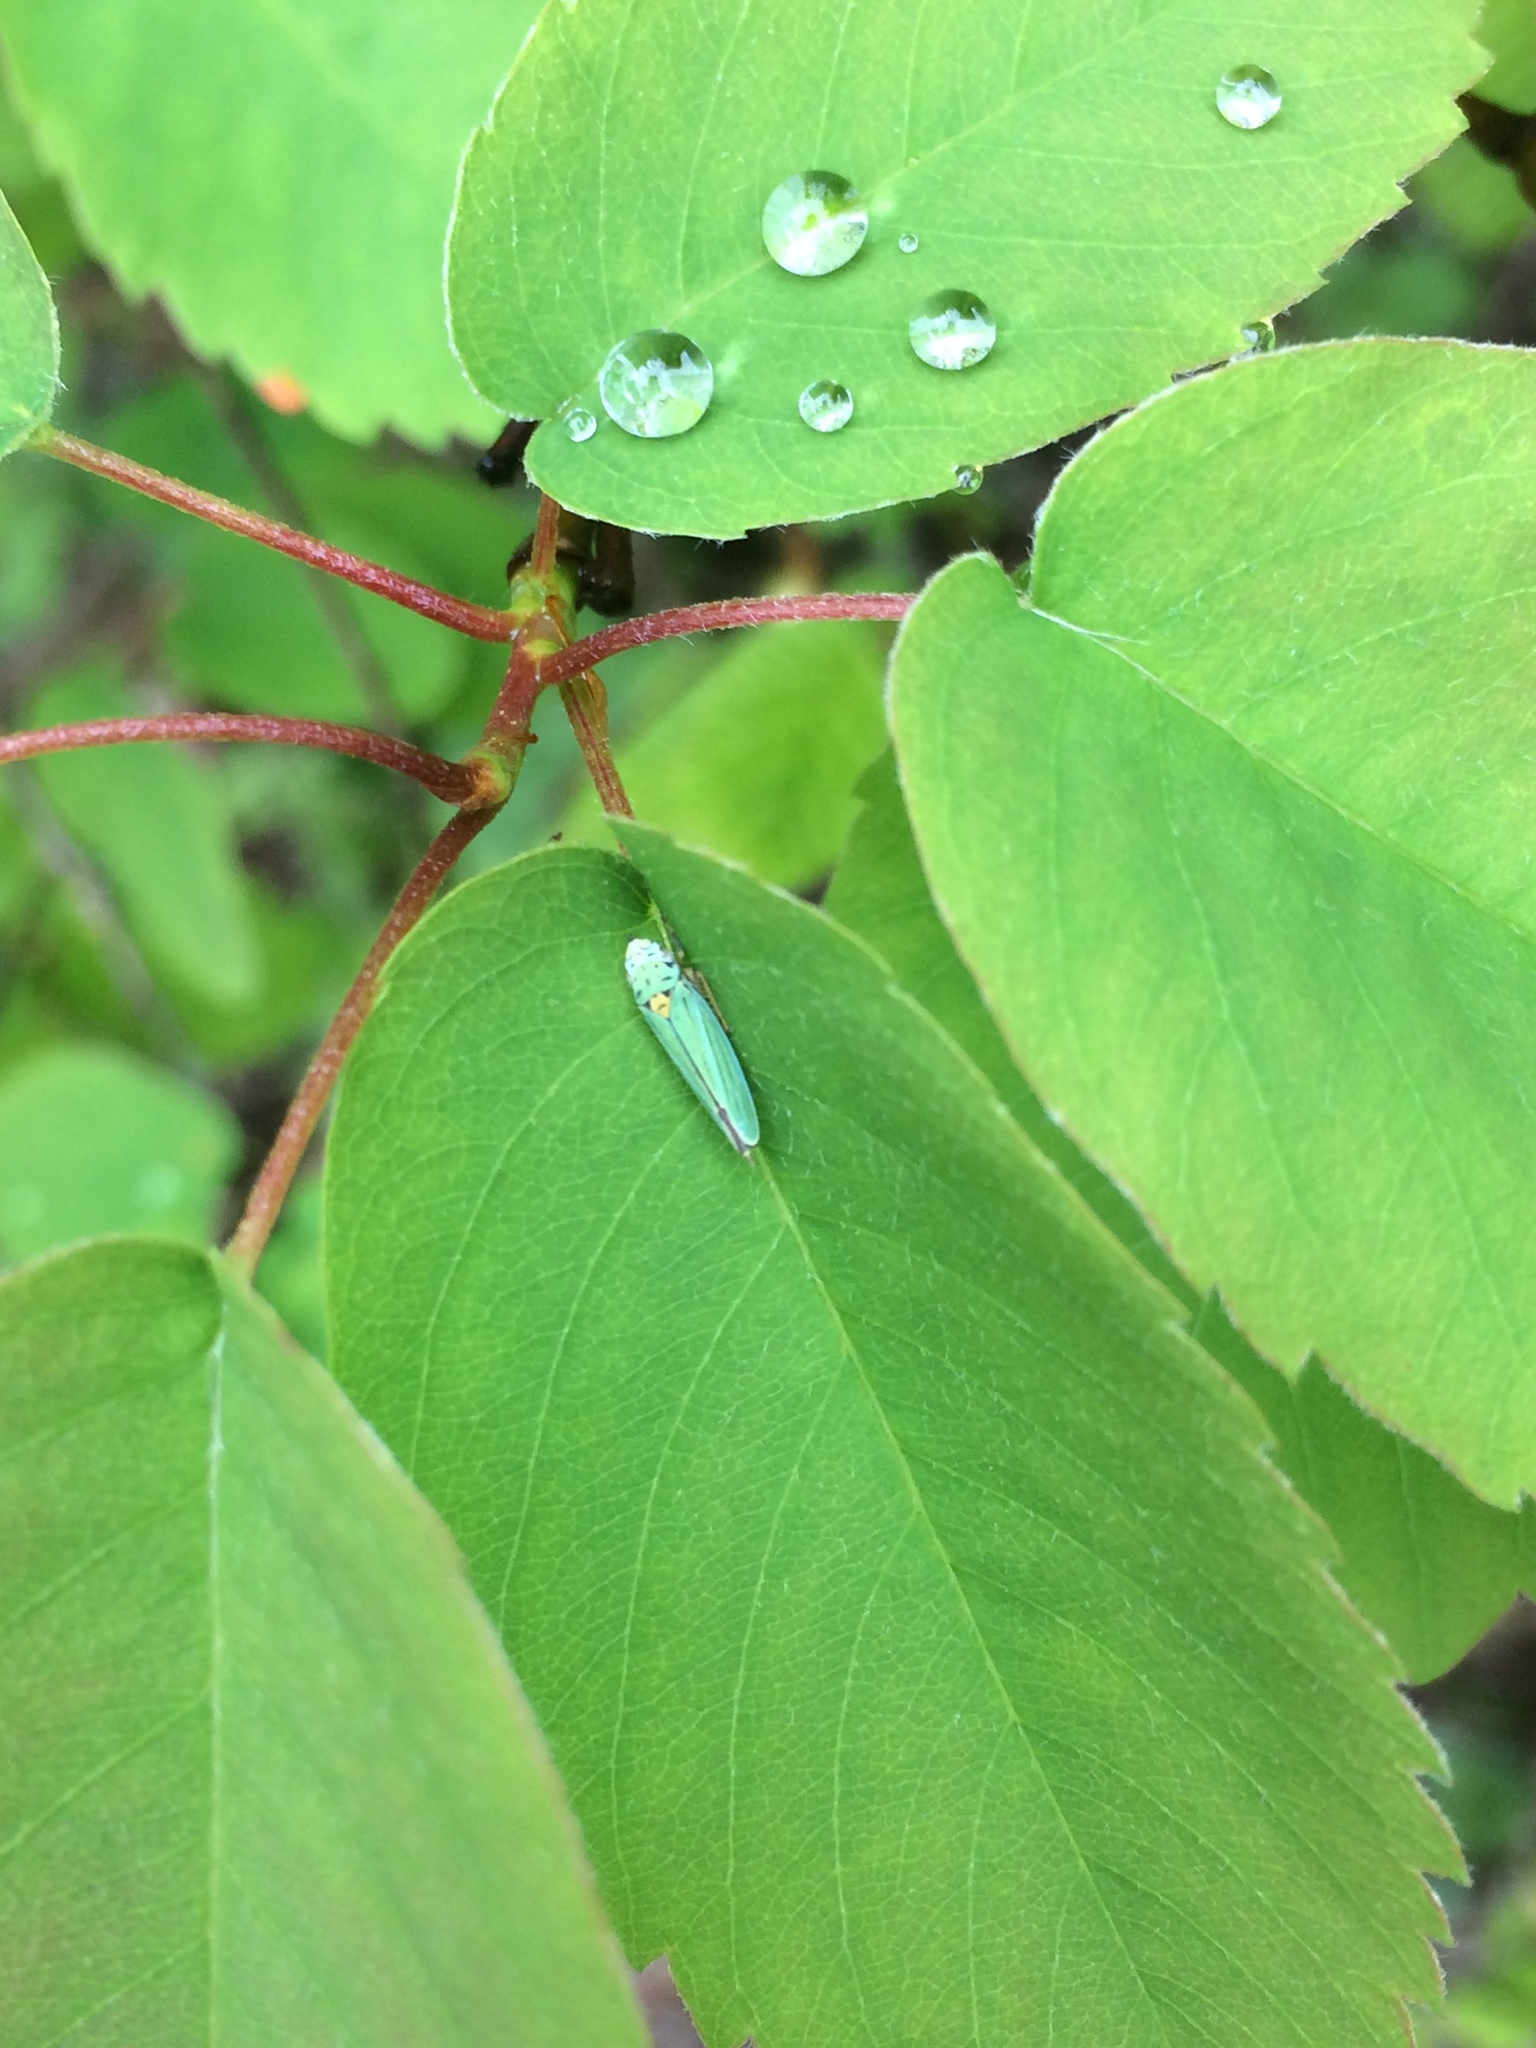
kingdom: Animalia
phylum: Arthropoda
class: Insecta
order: Hemiptera
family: Cicadellidae
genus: Graphocephala
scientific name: Graphocephala atropunctata
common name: Blue-green sharpshooter
